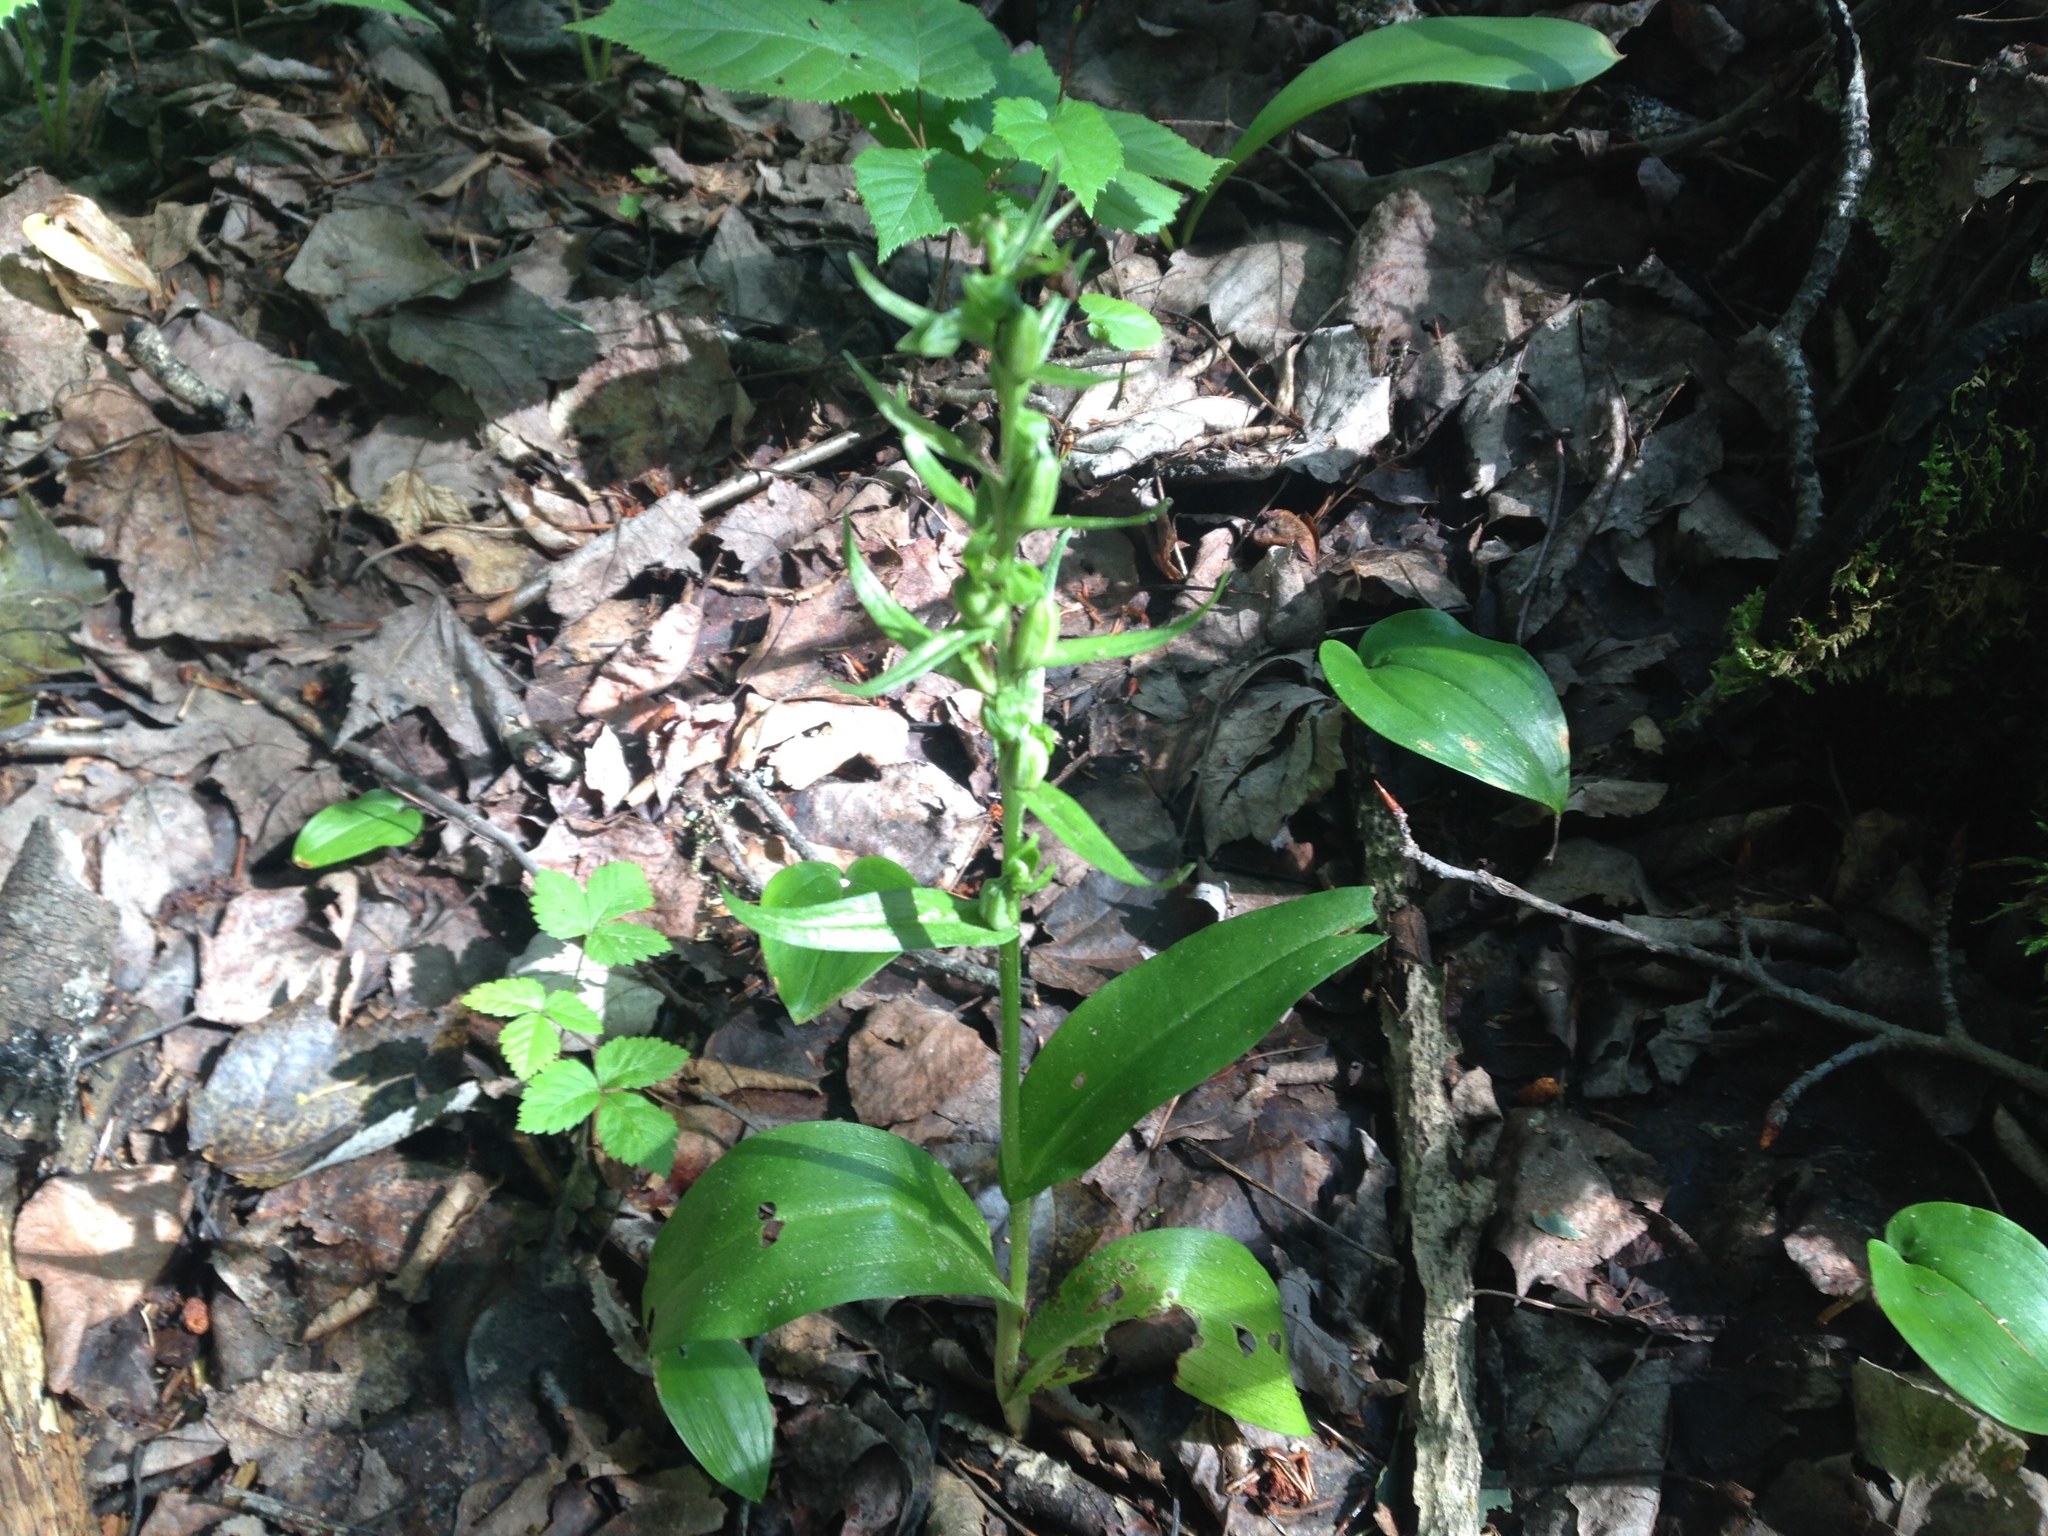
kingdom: Plantae
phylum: Tracheophyta
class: Liliopsida
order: Asparagales
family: Orchidaceae
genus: Dactylorhiza
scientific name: Dactylorhiza viridis
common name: Longbract frog orchid
